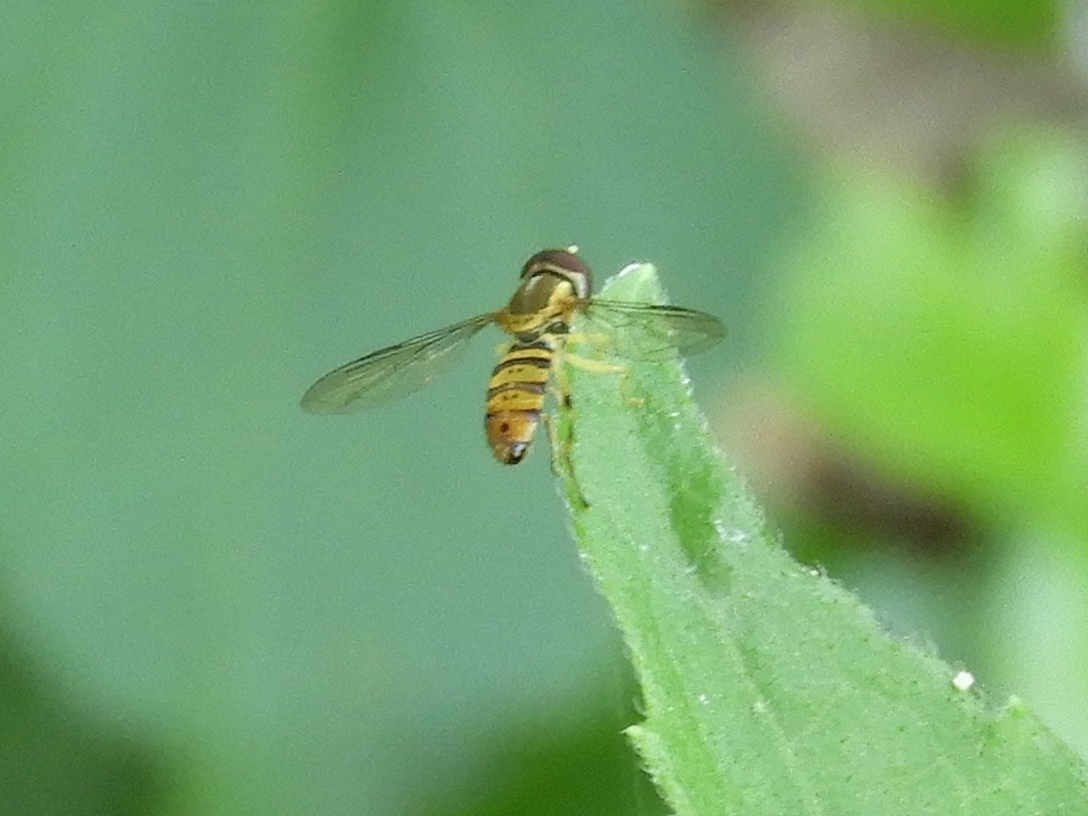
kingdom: Animalia
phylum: Arthropoda
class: Insecta
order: Diptera
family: Syrphidae
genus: Toxomerus
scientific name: Toxomerus politus
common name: Maize calligrapher
